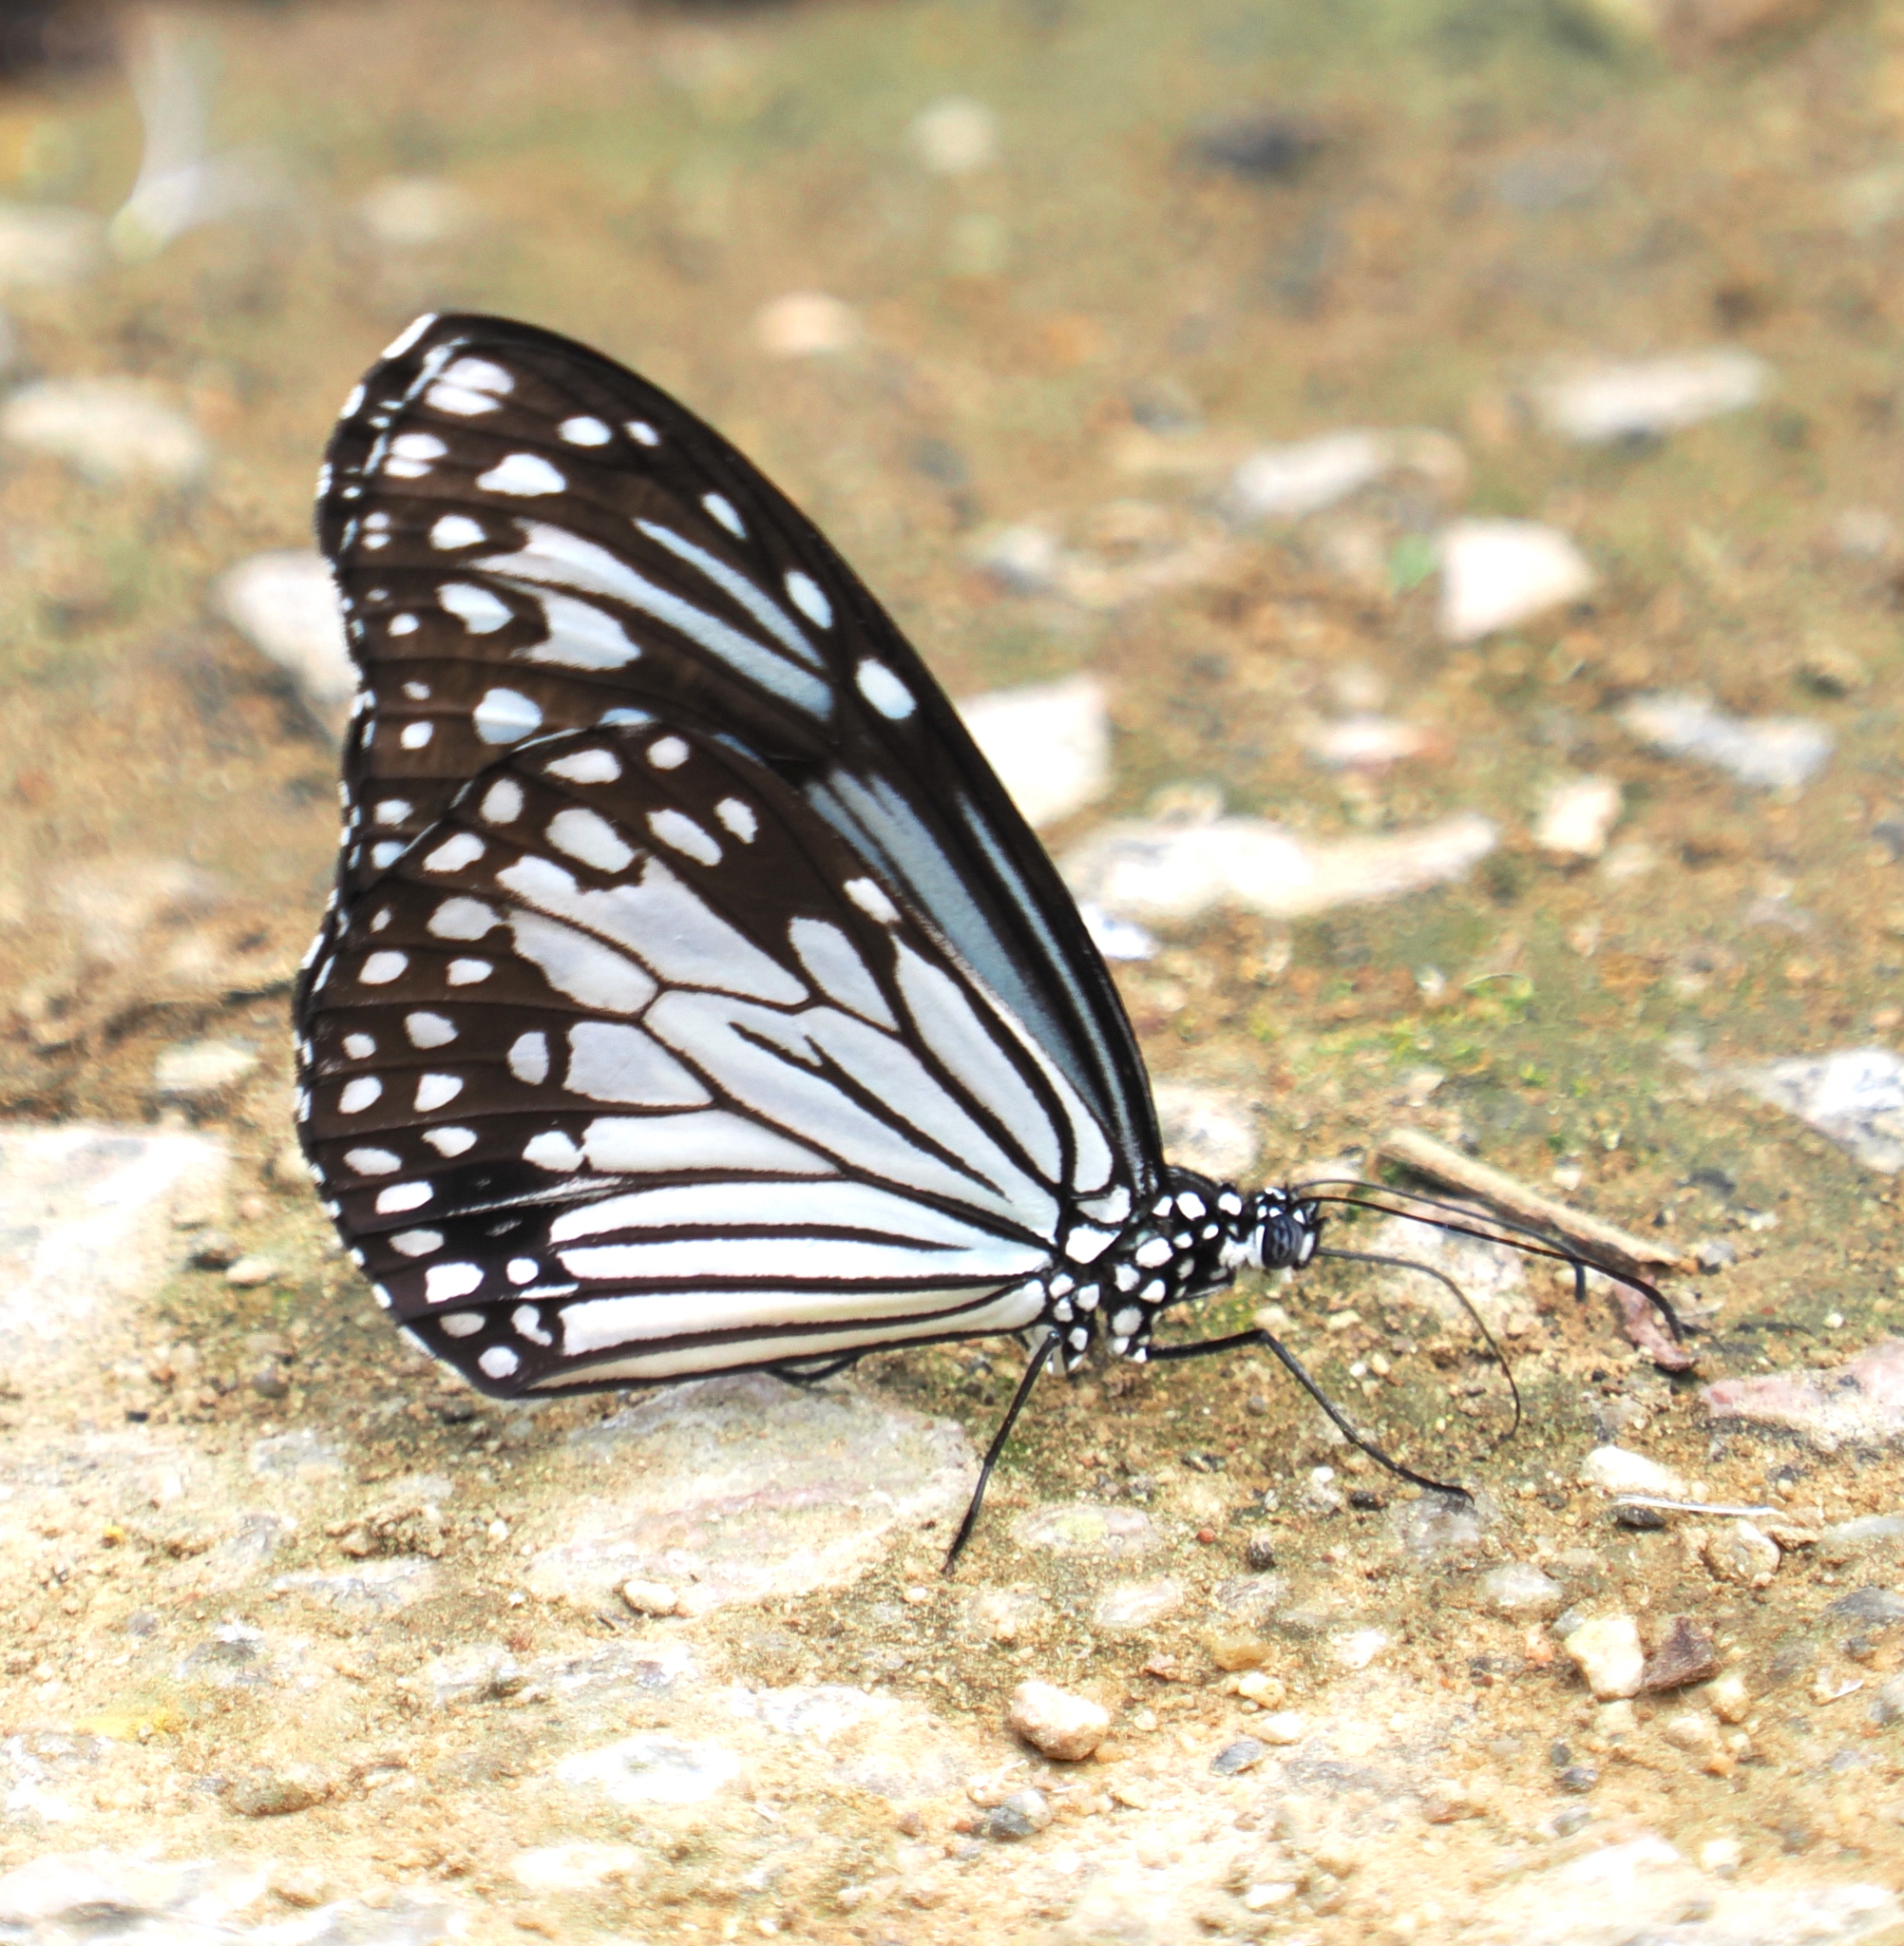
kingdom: Animalia
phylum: Arthropoda
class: Insecta
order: Lepidoptera
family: Nymphalidae
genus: Parantica
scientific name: Parantica aglea
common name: Glassy tiger
